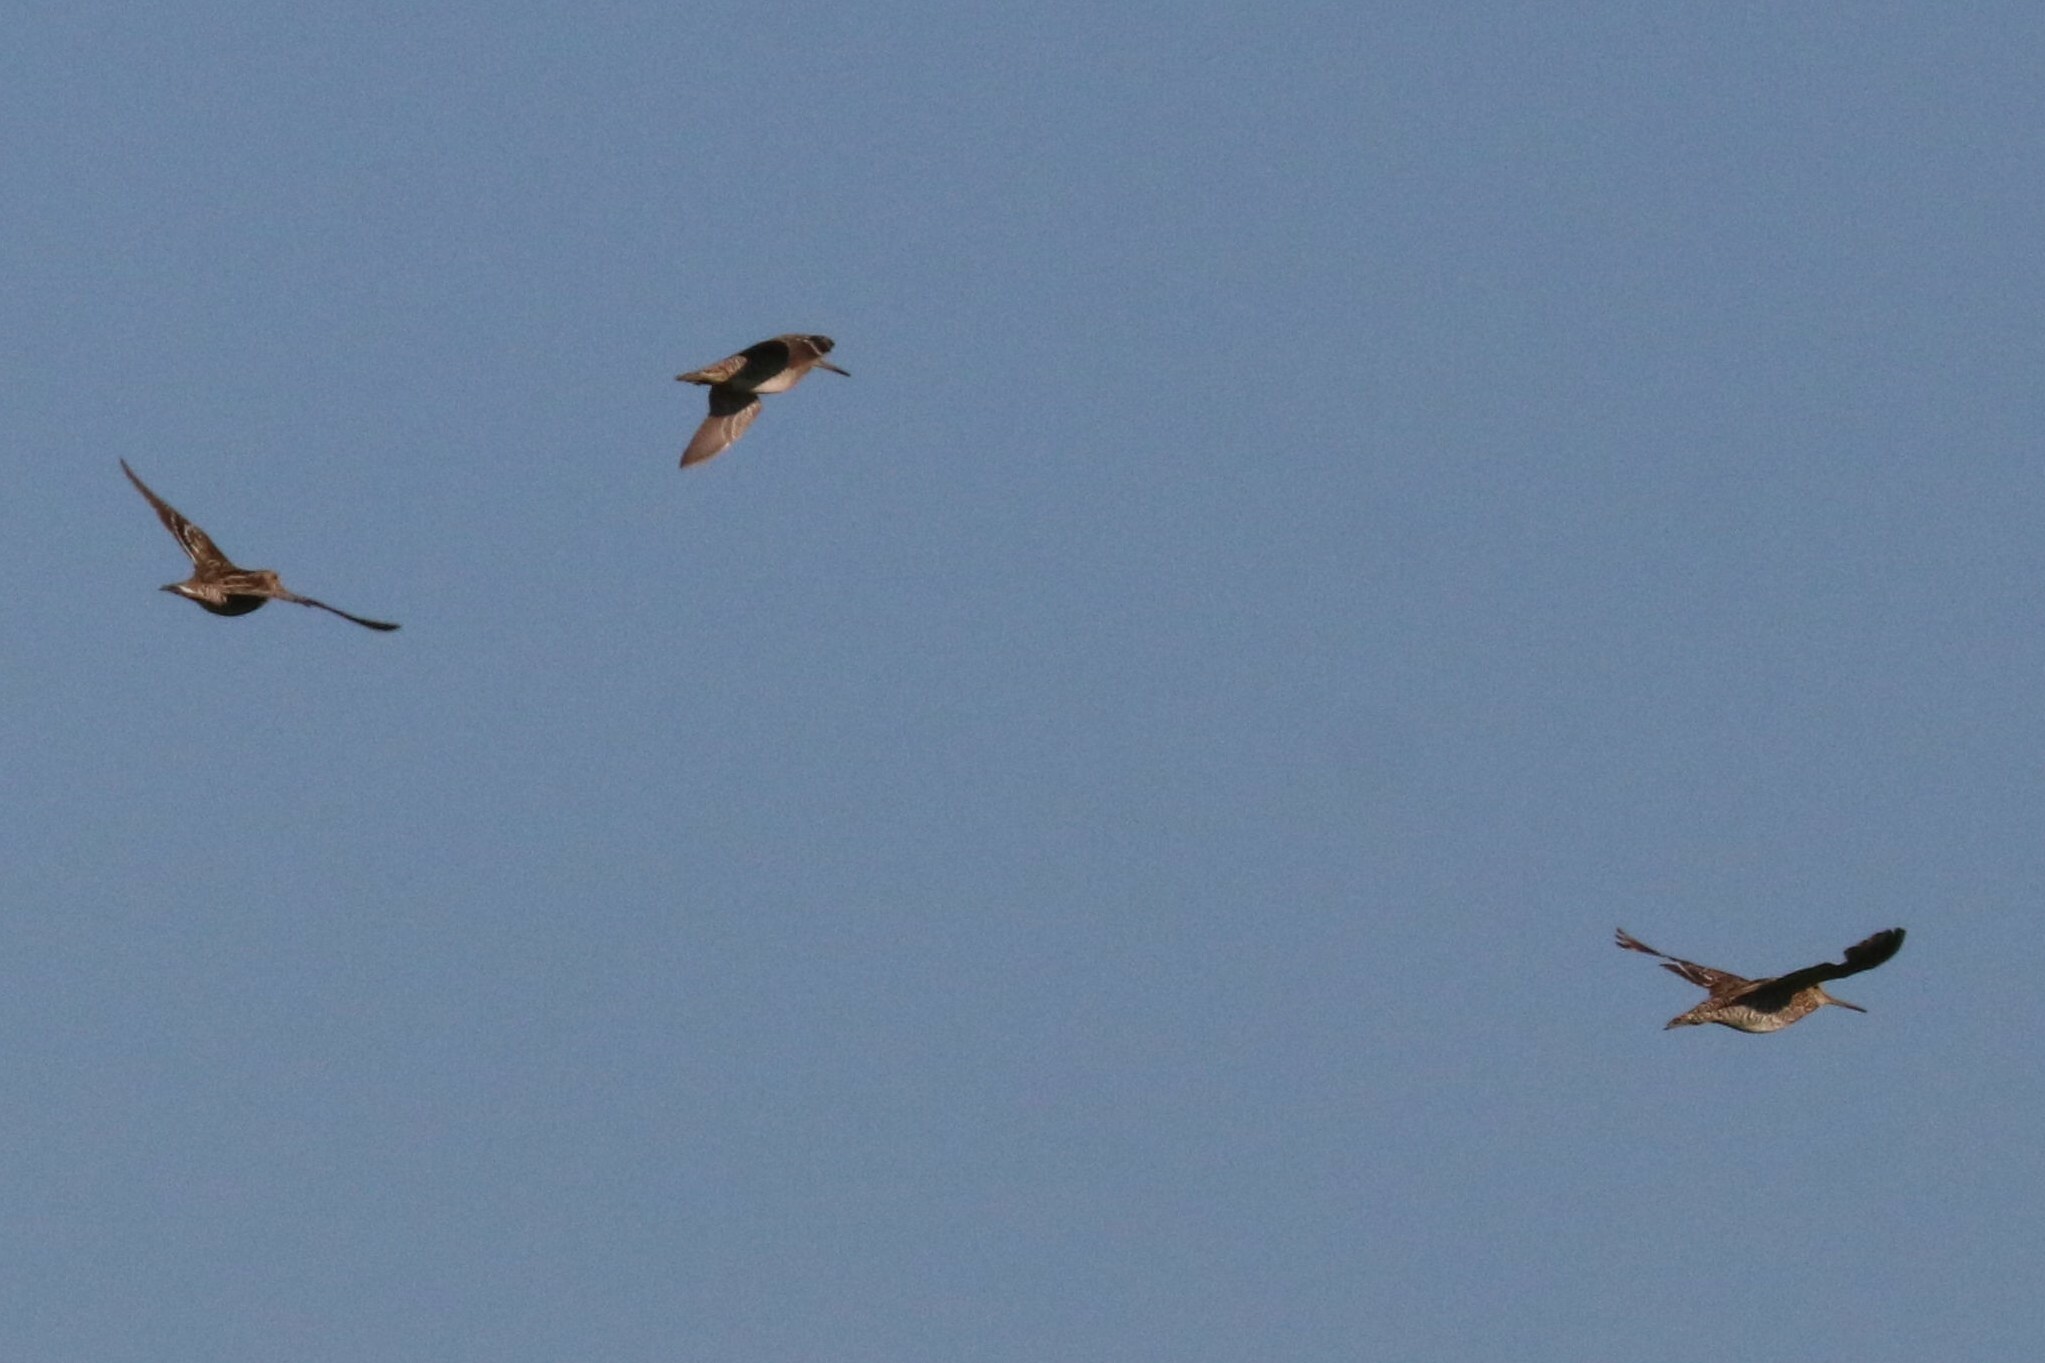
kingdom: Animalia
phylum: Chordata
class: Aves
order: Charadriiformes
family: Scolopacidae
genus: Gallinago
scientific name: Gallinago media
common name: Great snipe
